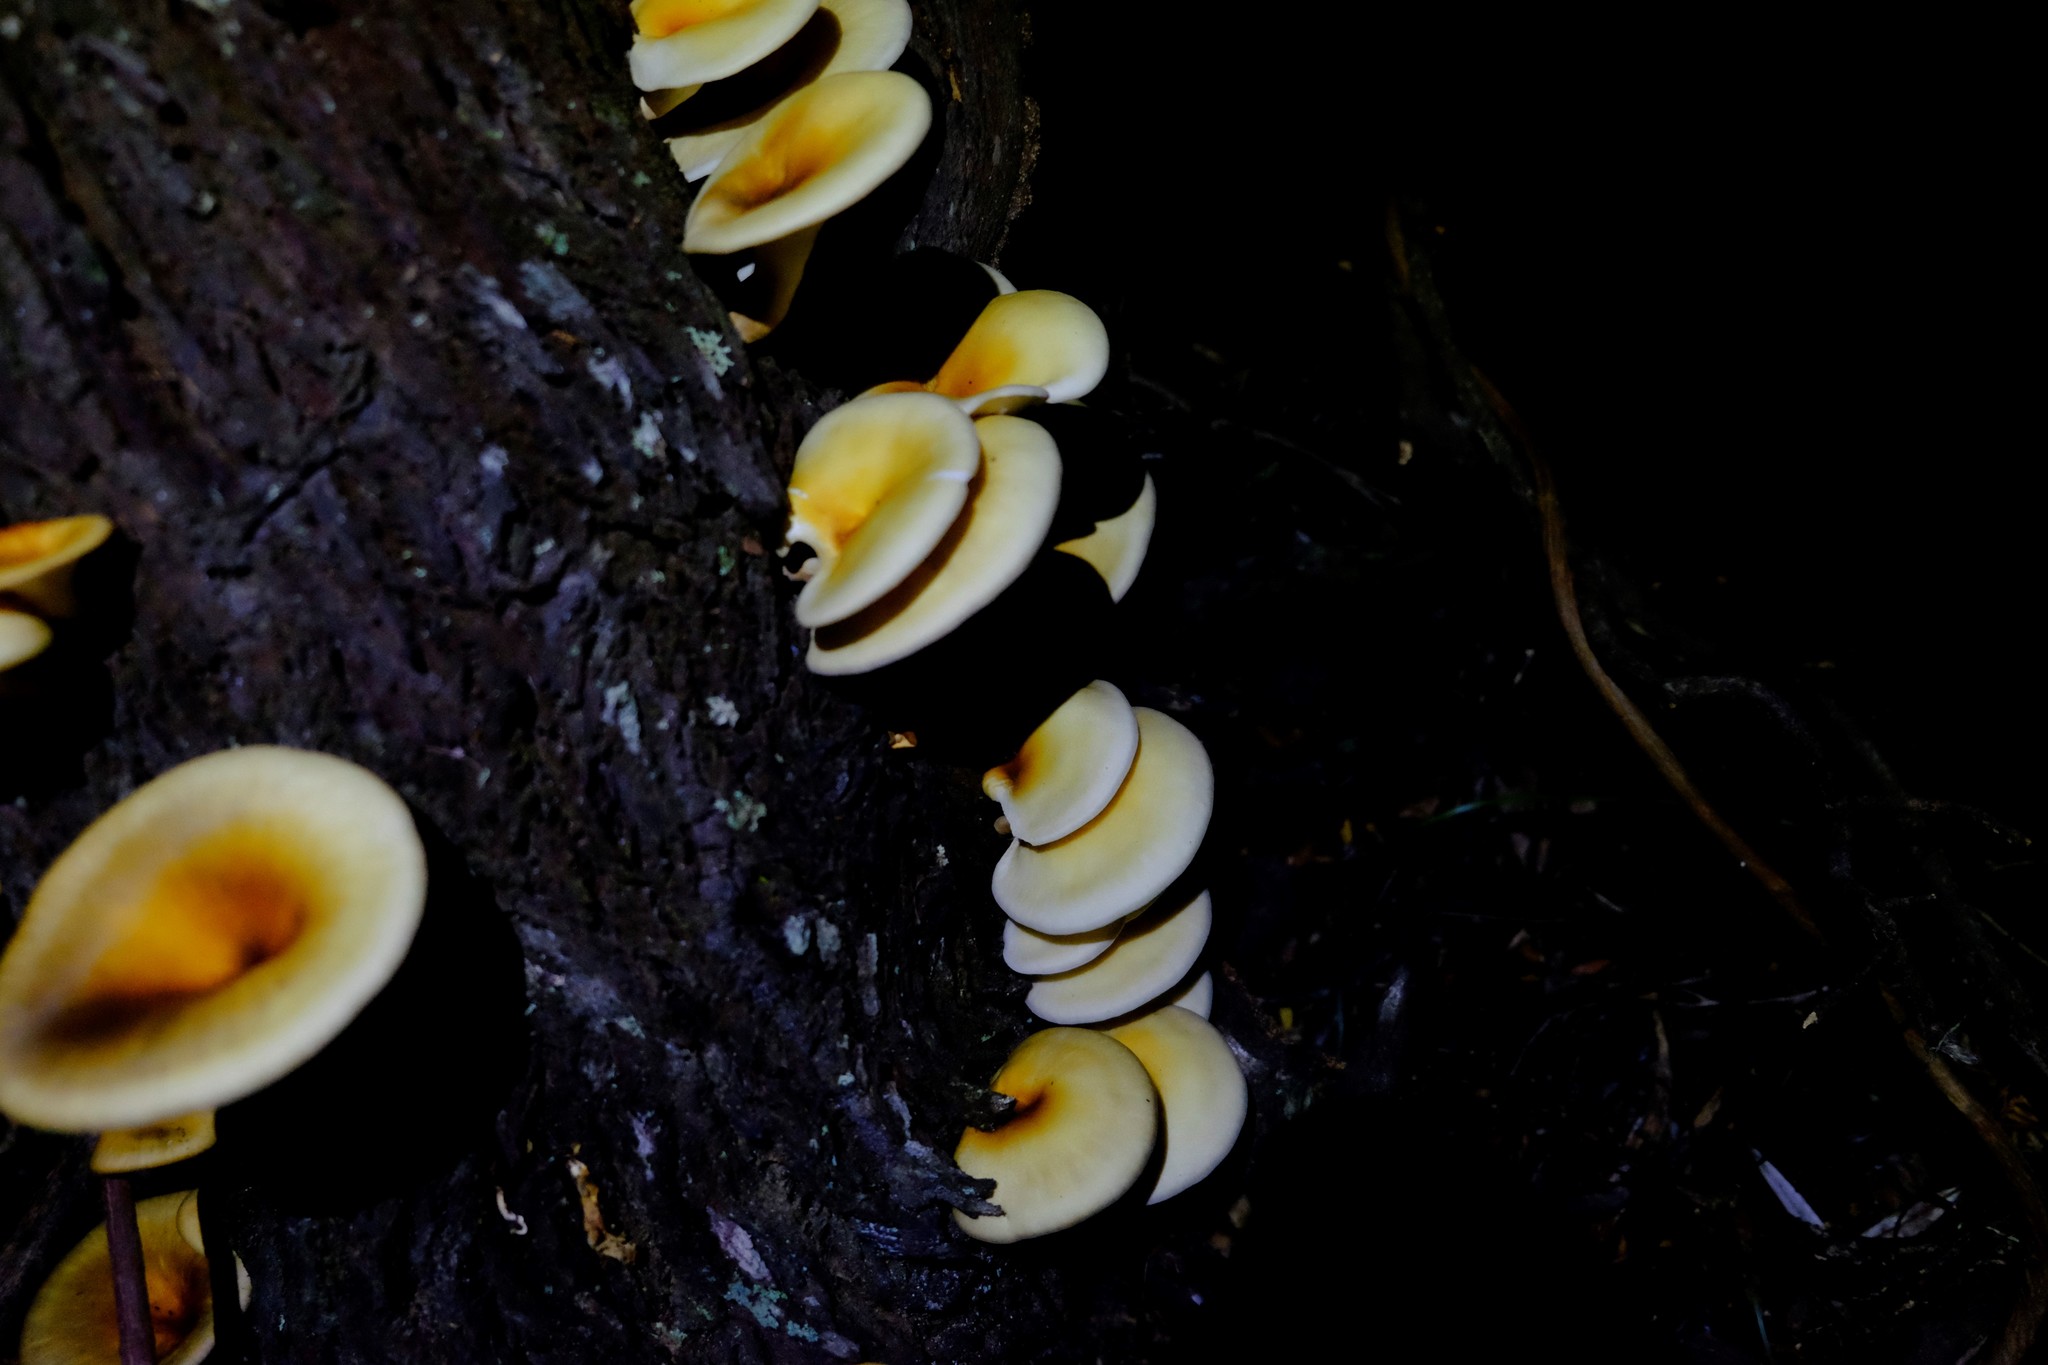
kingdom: Fungi
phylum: Basidiomycota
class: Agaricomycetes
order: Agaricales
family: Omphalotaceae
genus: Omphalotus
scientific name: Omphalotus nidiformis
